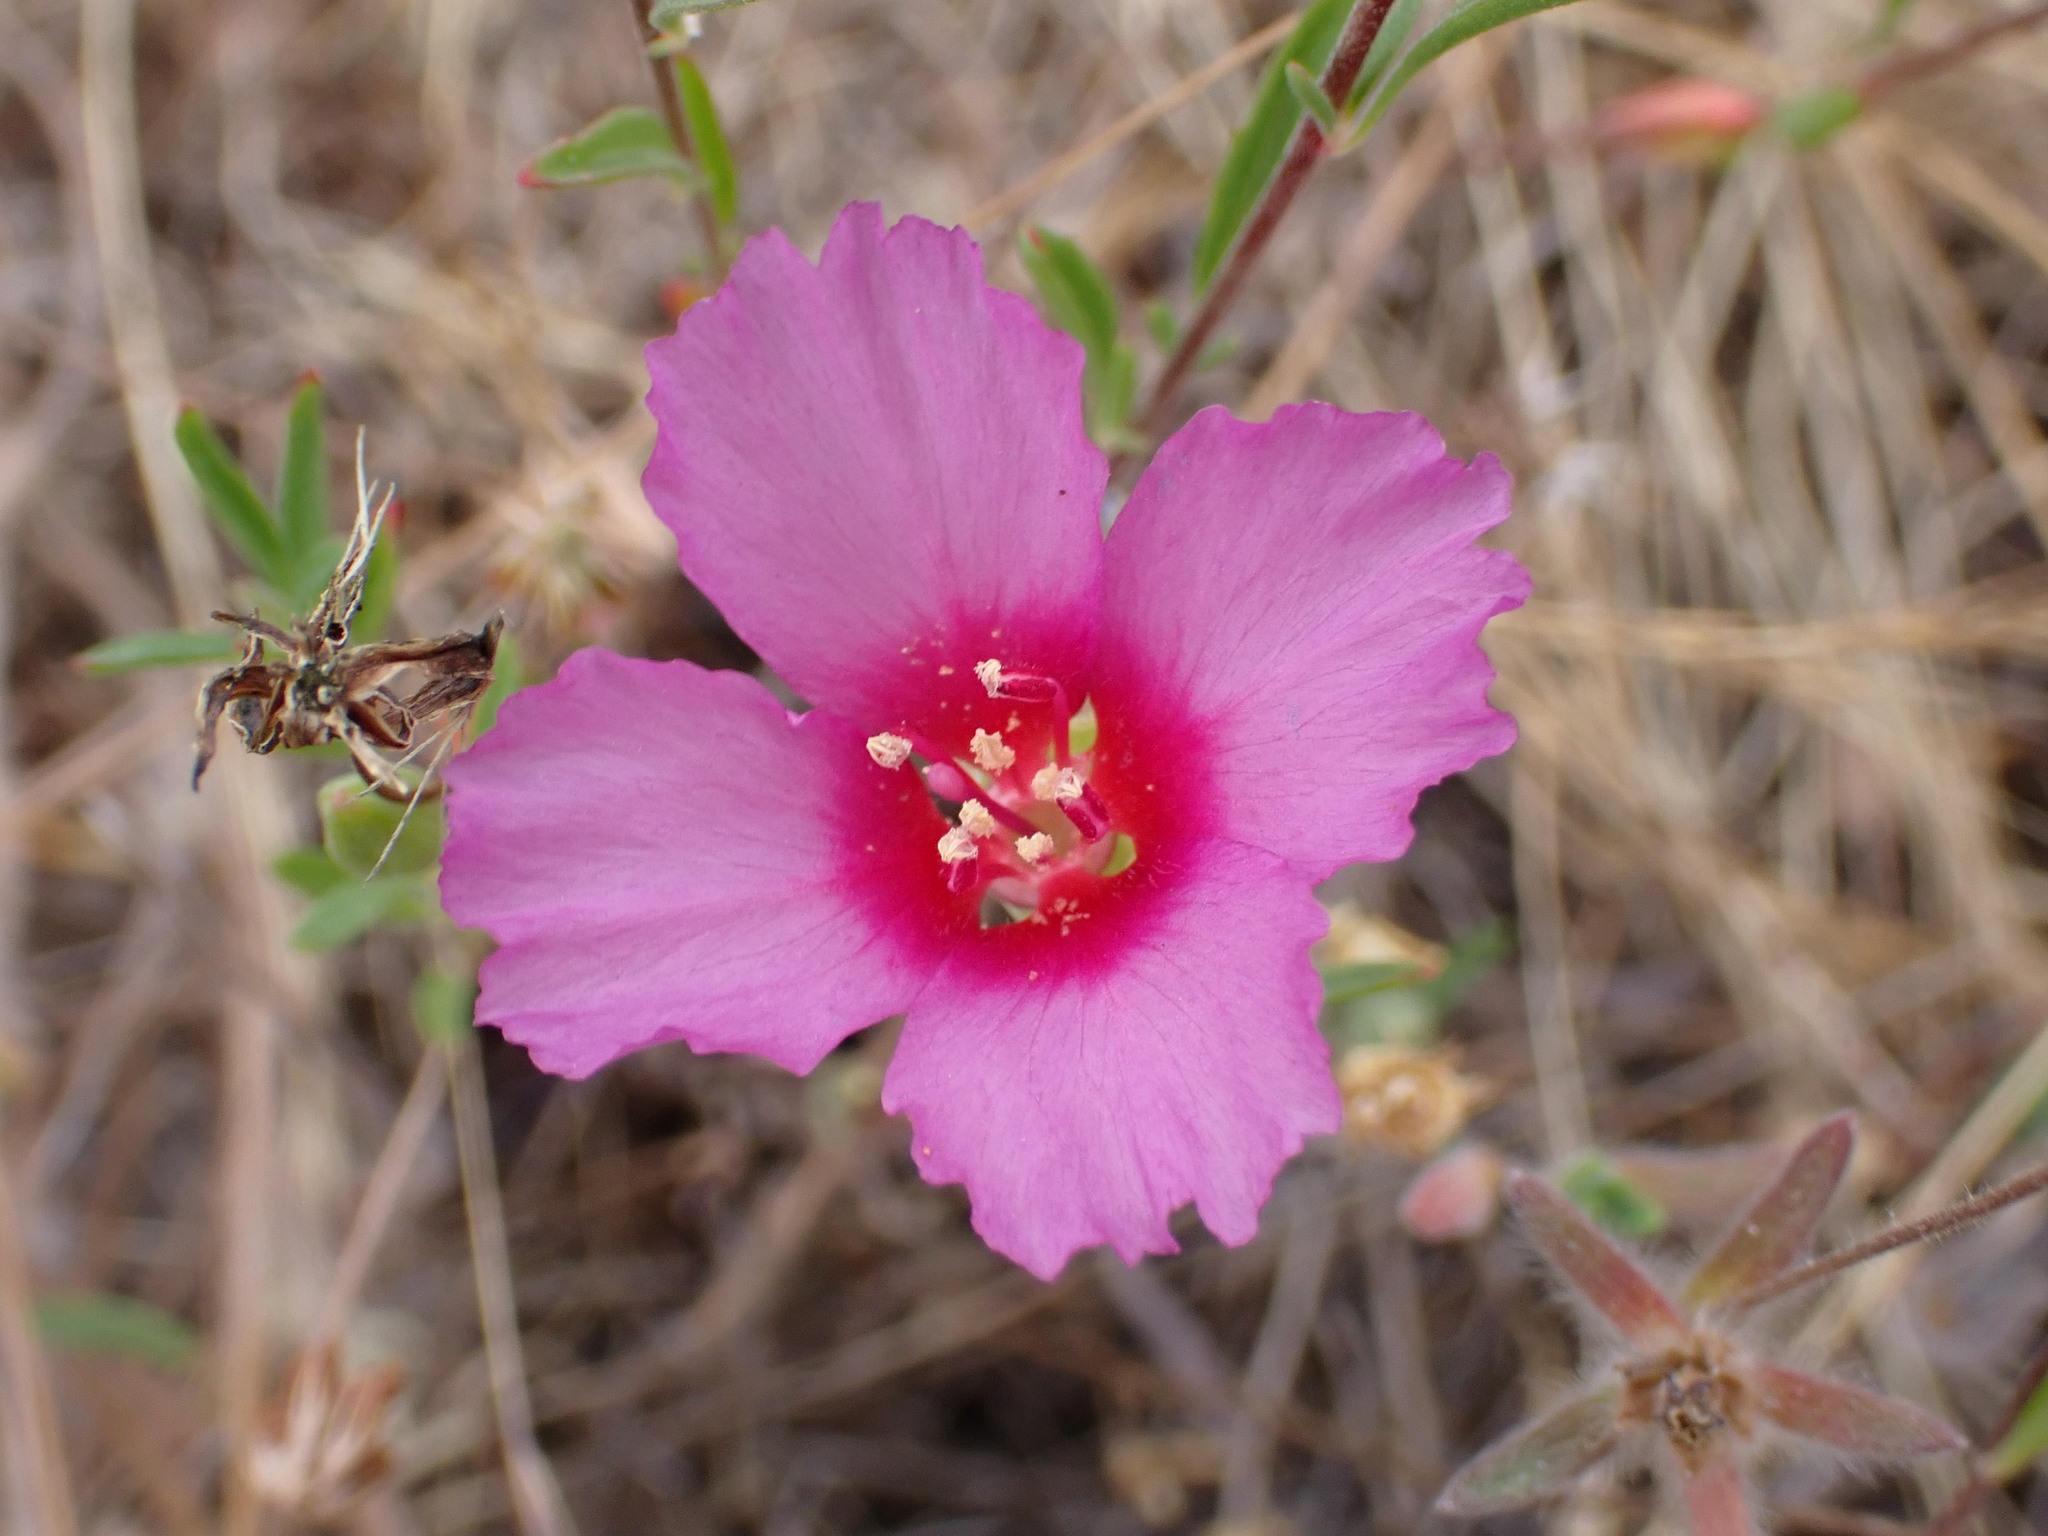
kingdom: Plantae
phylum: Tracheophyta
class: Magnoliopsida
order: Myrtales
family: Onagraceae
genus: Clarkia
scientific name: Clarkia rubicunda
